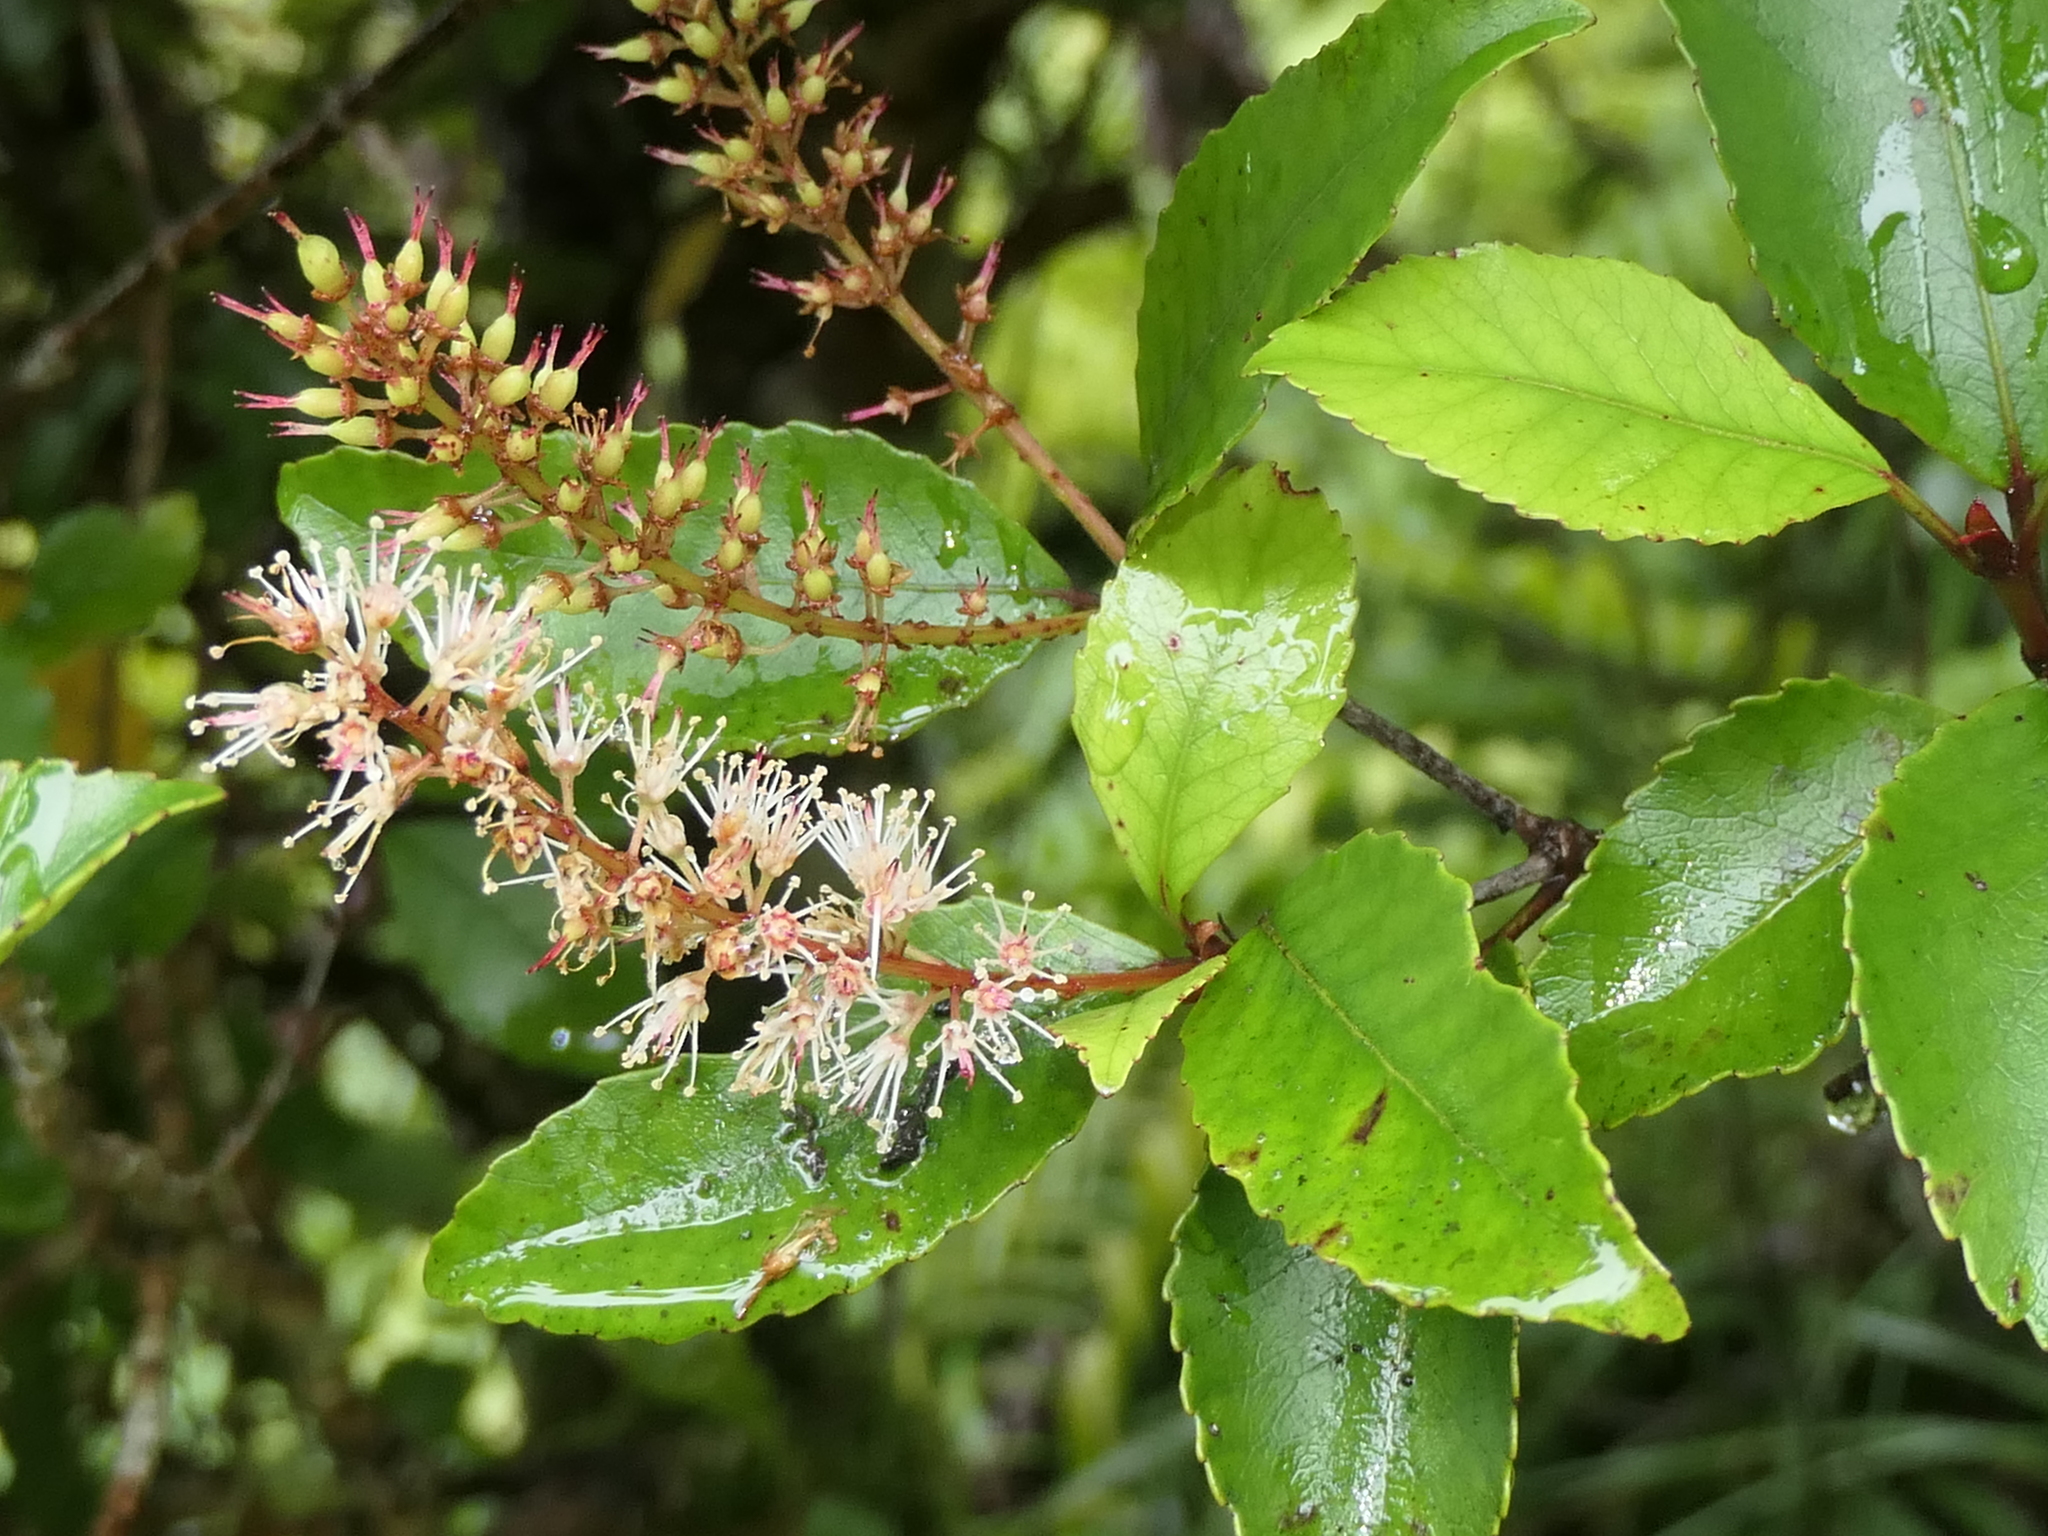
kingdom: Plantae
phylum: Tracheophyta
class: Magnoliopsida
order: Oxalidales
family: Cunoniaceae
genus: Pterophylla
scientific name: Pterophylla racemosa
